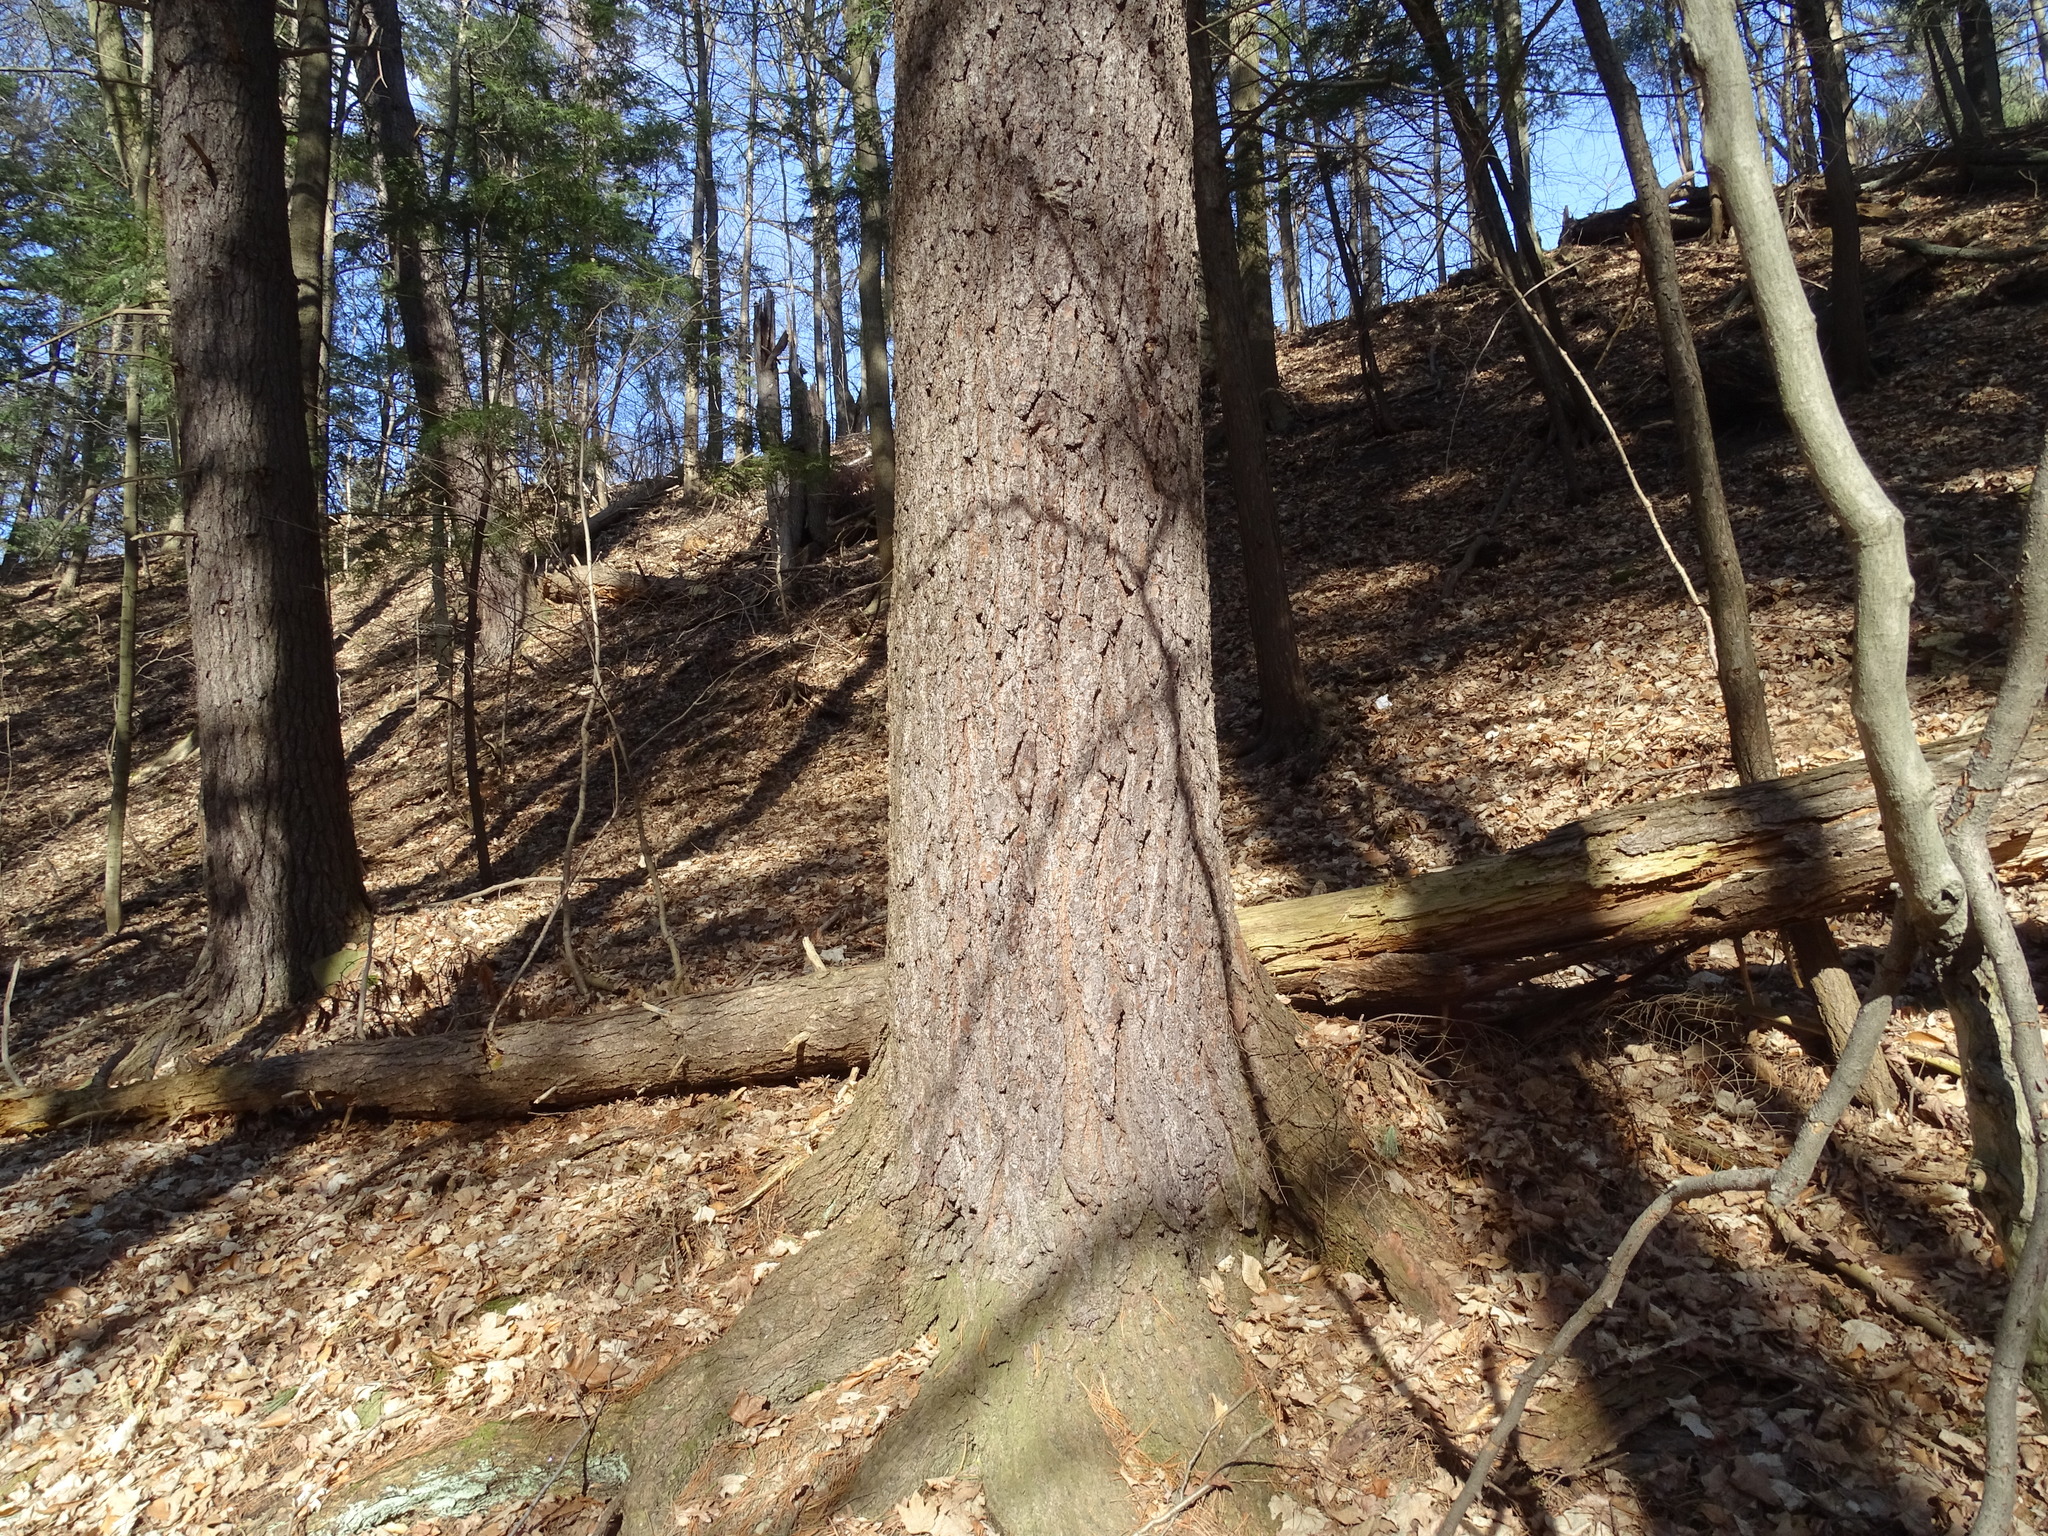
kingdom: Plantae
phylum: Tracheophyta
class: Pinopsida
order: Pinales
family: Pinaceae
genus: Pinus
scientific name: Pinus strobus
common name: Weymouth pine
